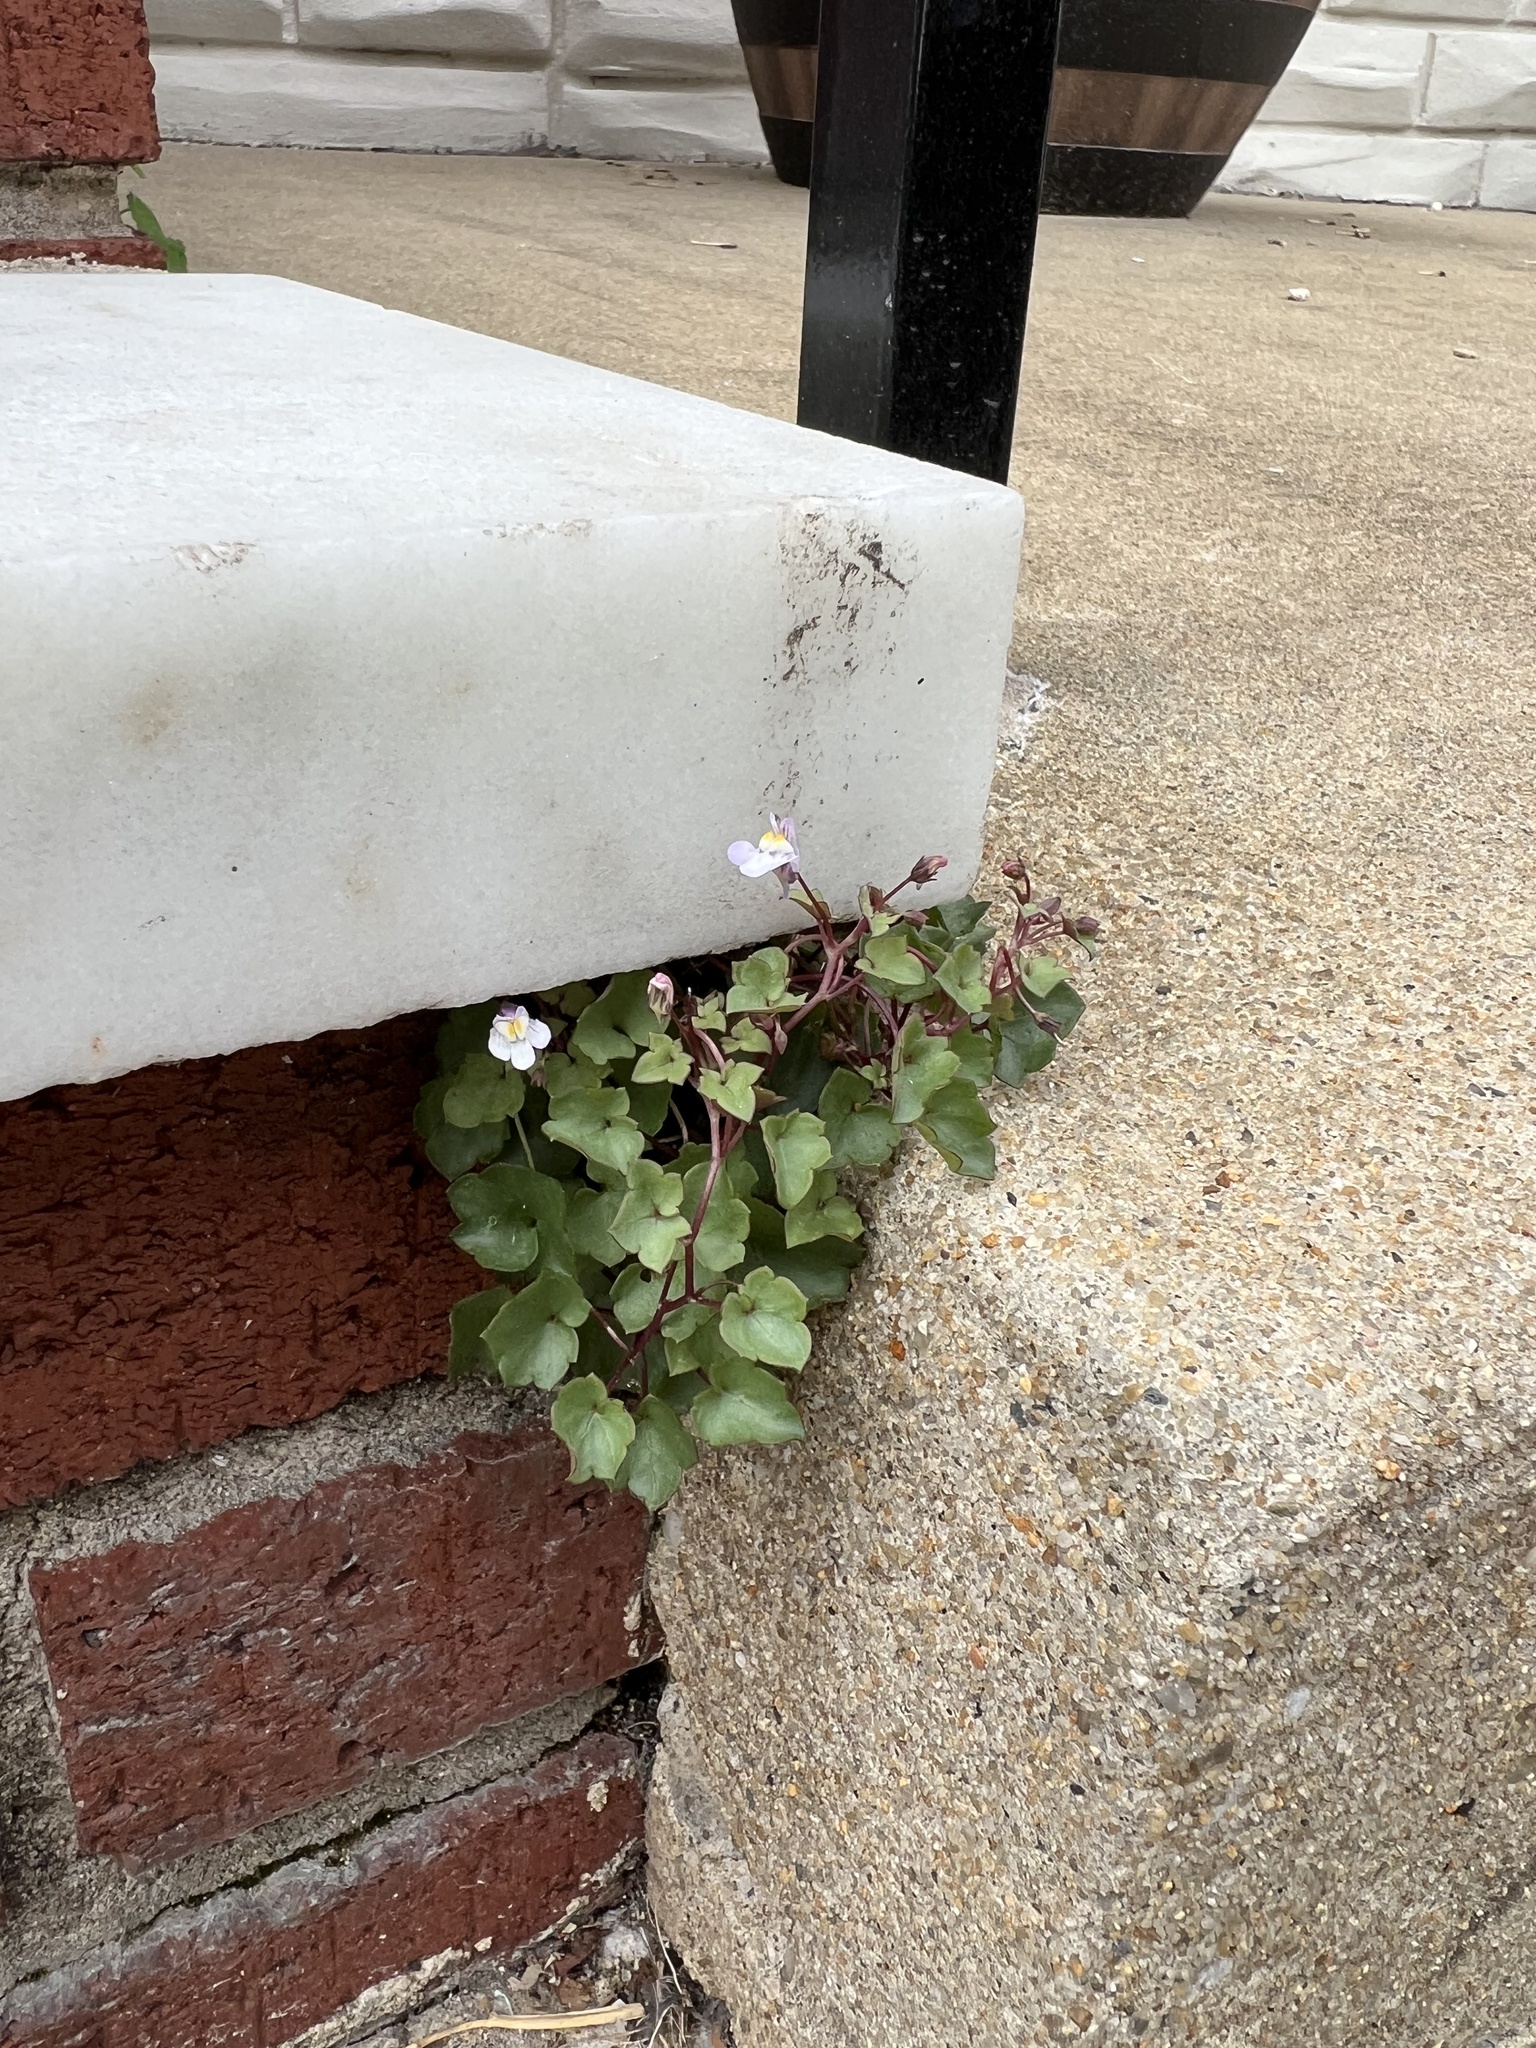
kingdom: Plantae
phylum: Tracheophyta
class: Magnoliopsida
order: Lamiales
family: Plantaginaceae
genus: Cymbalaria
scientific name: Cymbalaria muralis
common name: Ivy-leaved toadflax
